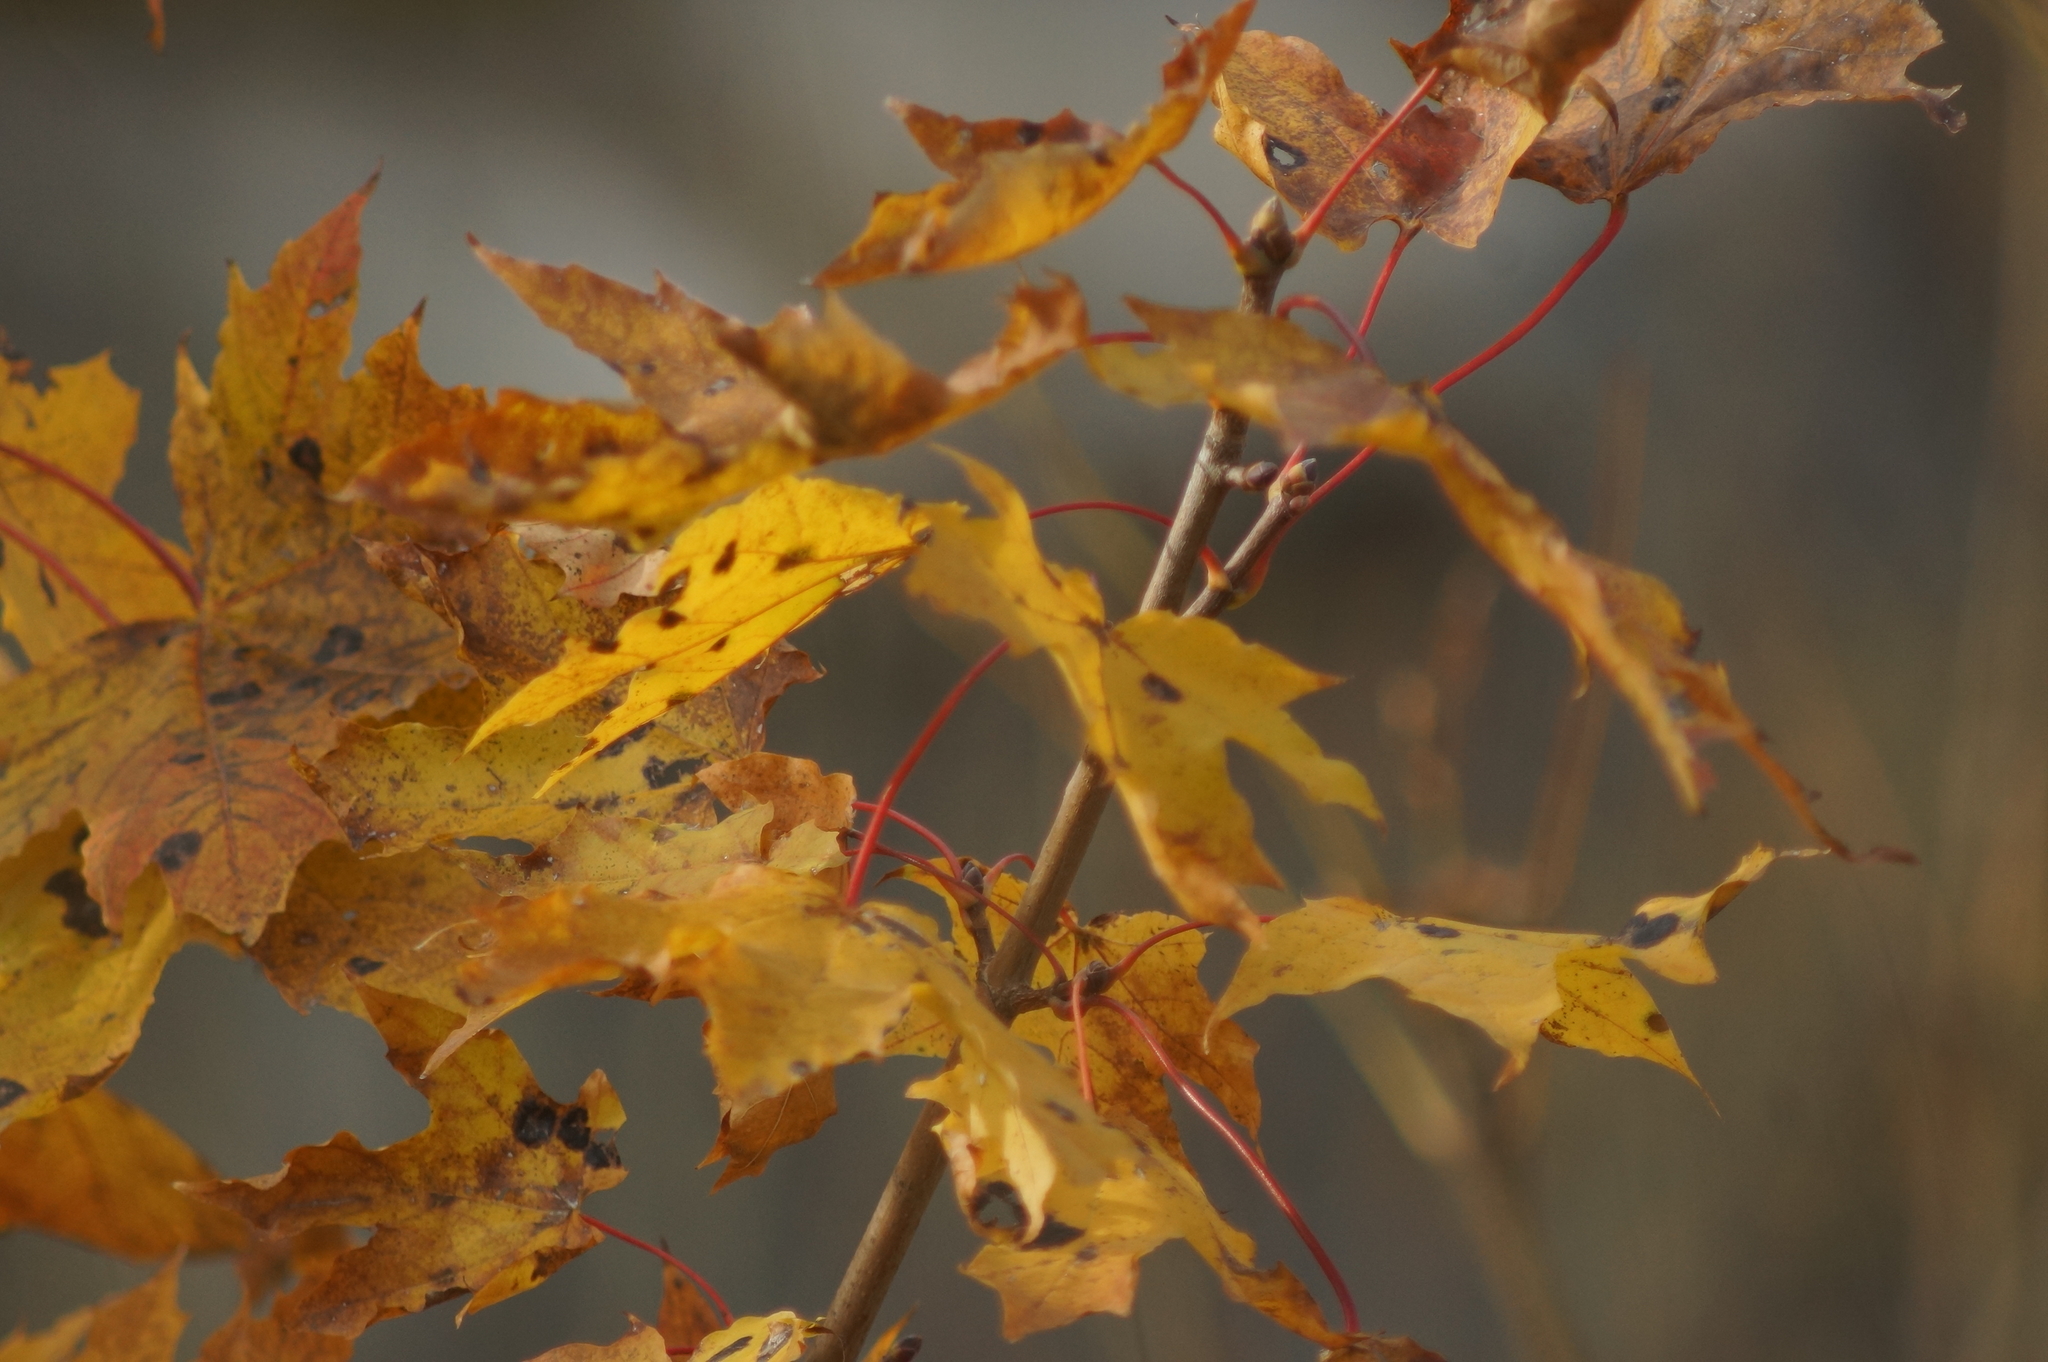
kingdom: Fungi
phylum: Ascomycota
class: Leotiomycetes
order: Rhytismatales
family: Rhytismataceae
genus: Rhytisma
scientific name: Rhytisma acerinum
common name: European tar spot
